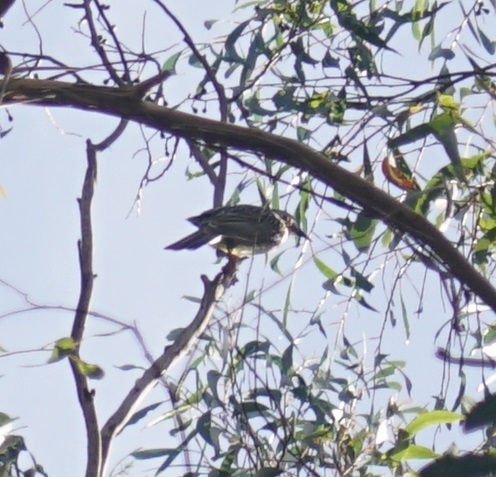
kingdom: Animalia
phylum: Chordata
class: Aves
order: Passeriformes
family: Meliphagidae
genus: Anthochaera
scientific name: Anthochaera carunculata
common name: Red wattlebird
